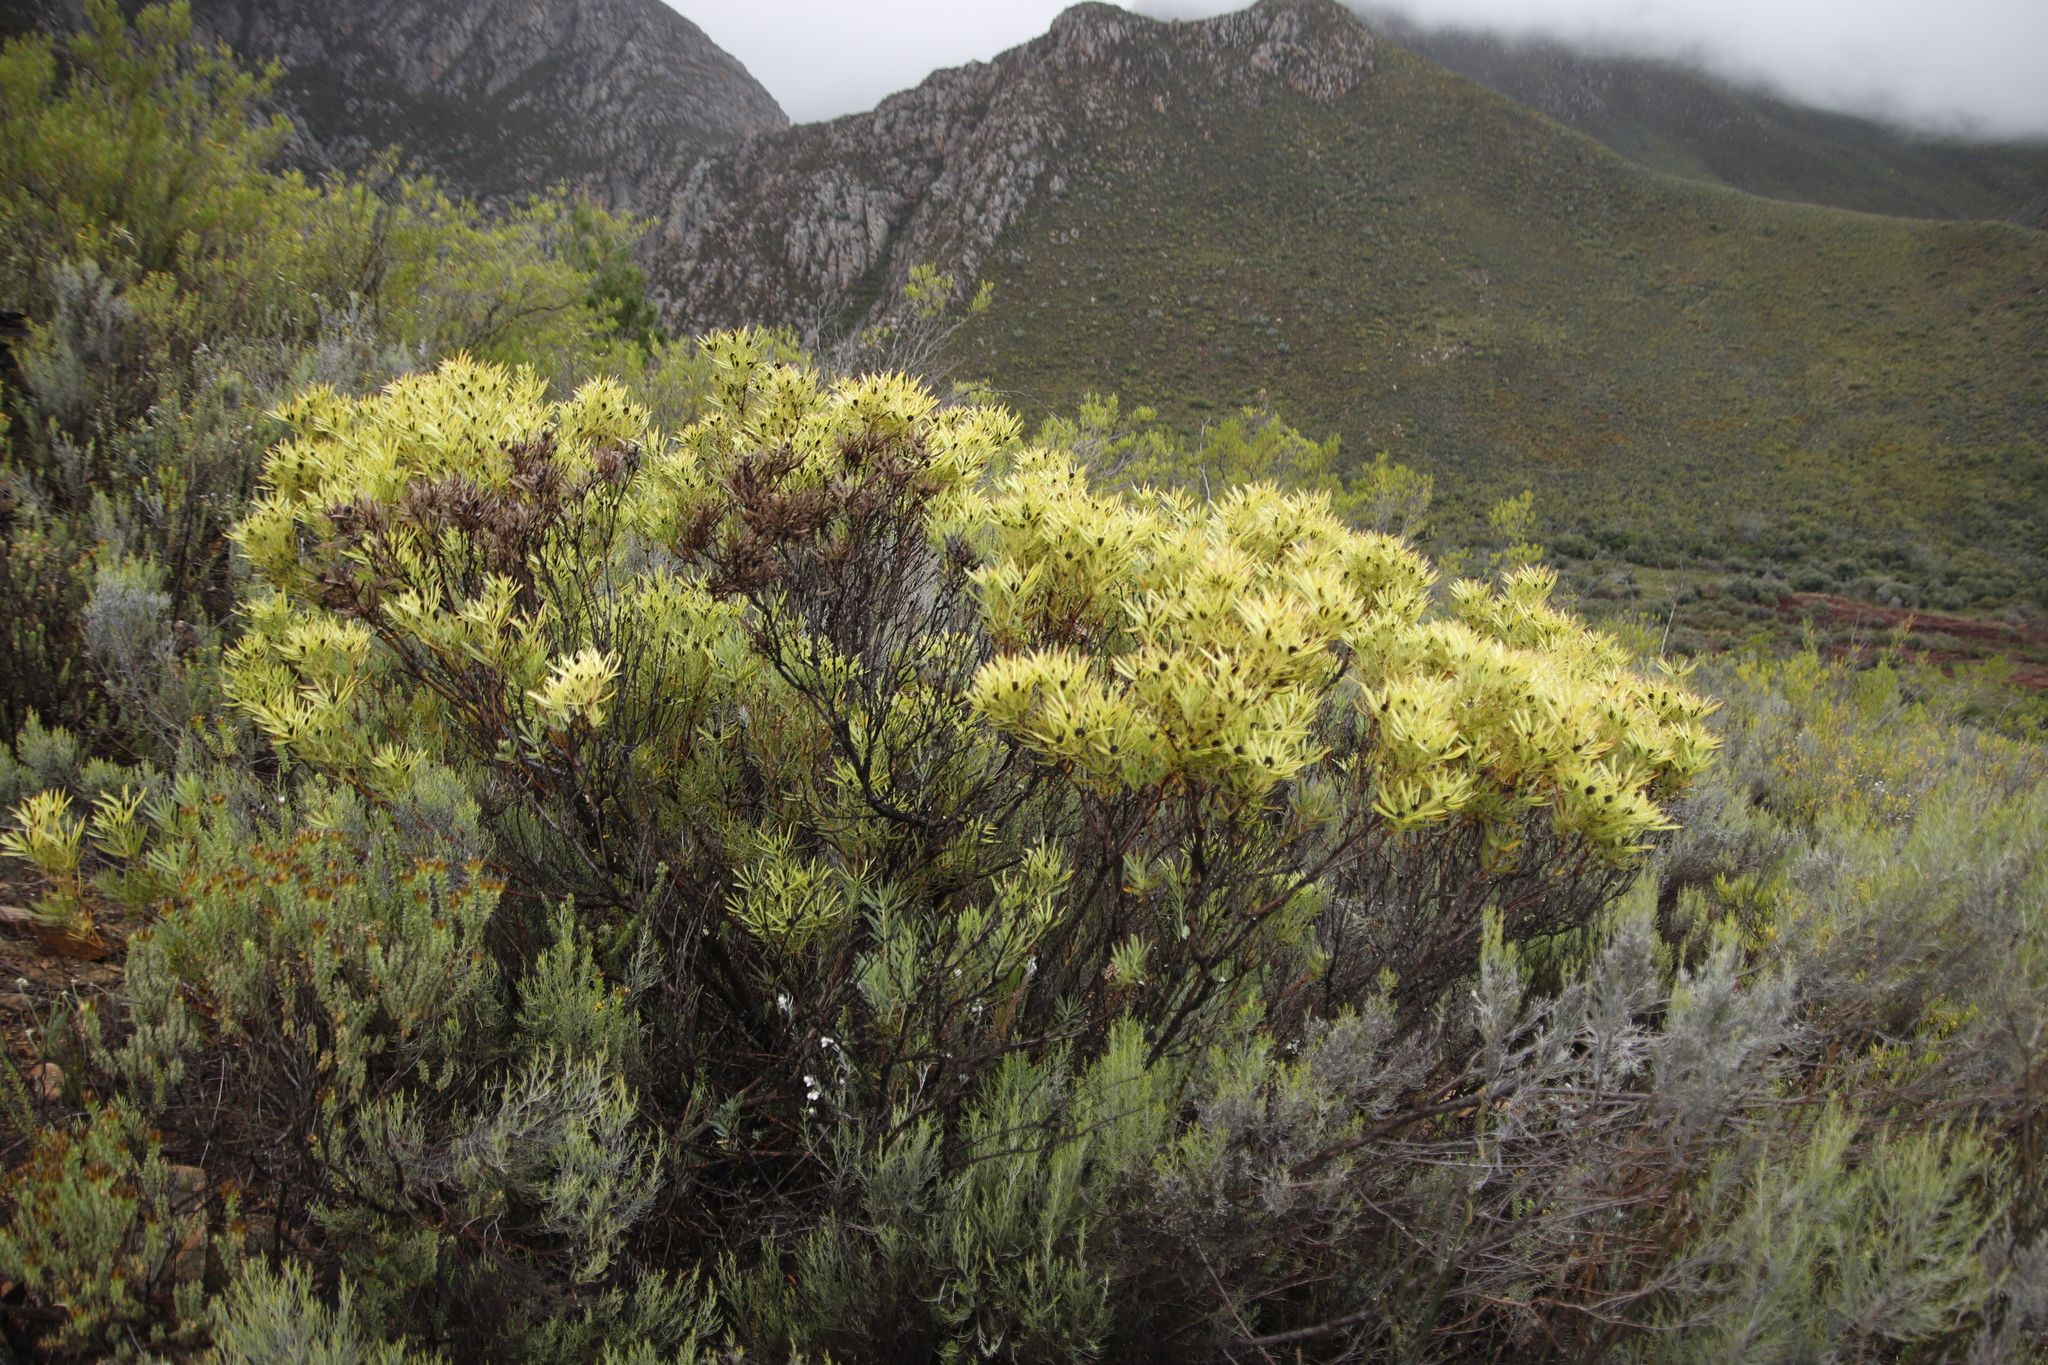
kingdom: Plantae
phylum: Tracheophyta
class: Magnoliopsida
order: Proteales
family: Proteaceae
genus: Leucadendron
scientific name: Leucadendron salignum
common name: Common sunshine conebush
